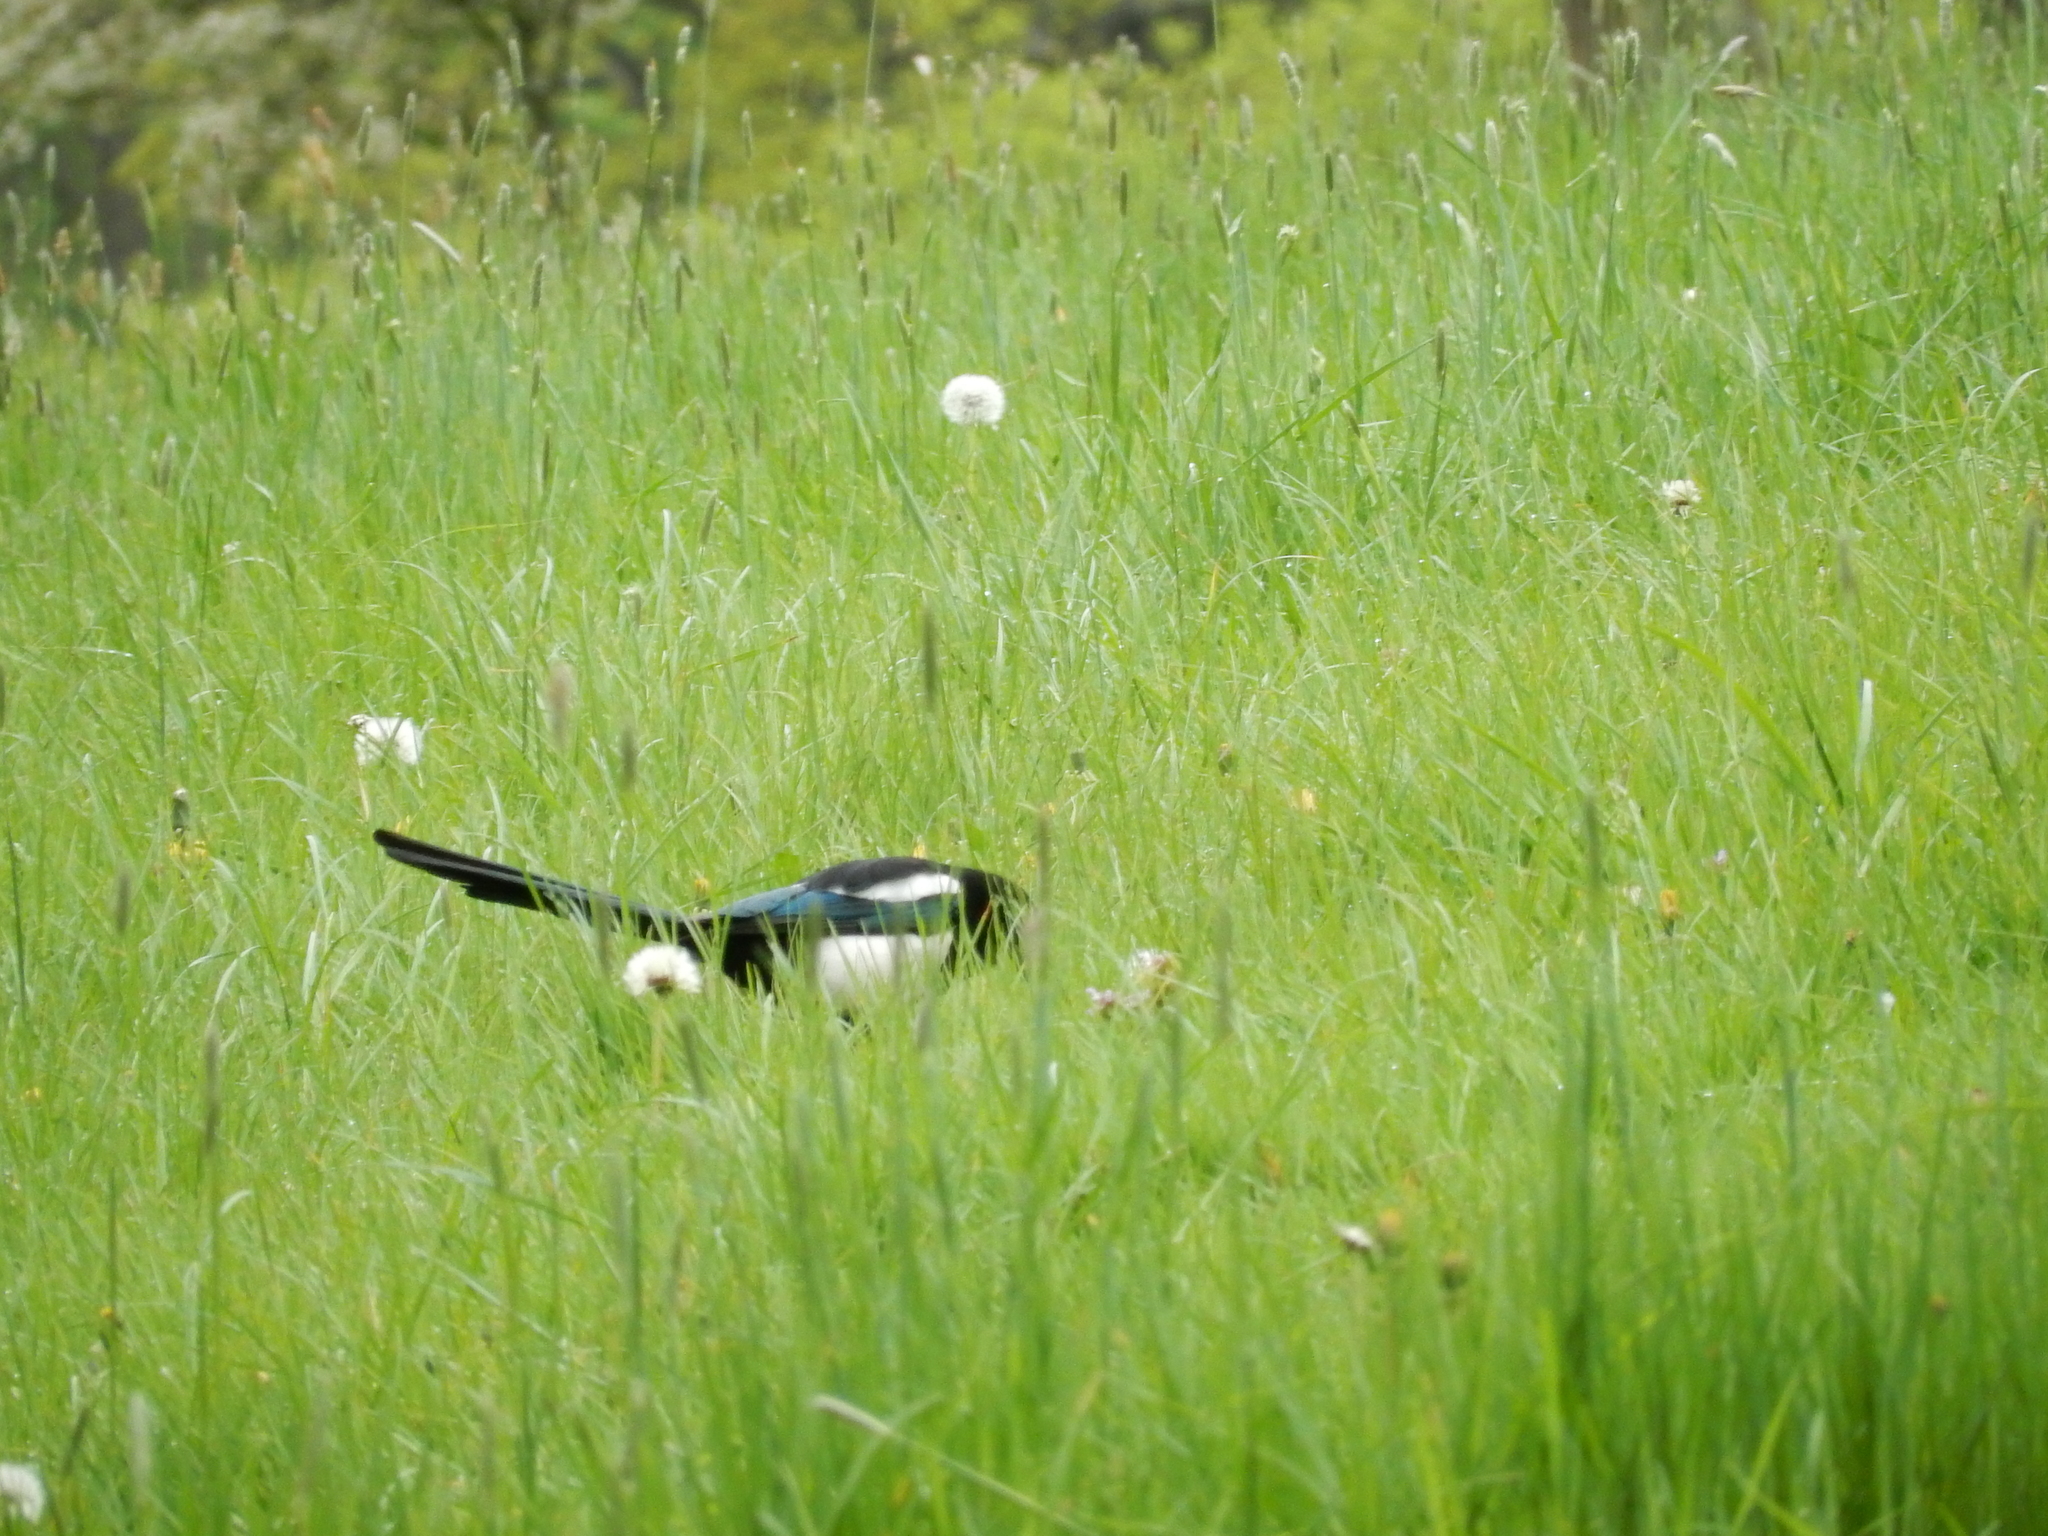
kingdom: Animalia
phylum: Chordata
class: Aves
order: Passeriformes
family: Corvidae
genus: Pica
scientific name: Pica pica
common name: Eurasian magpie
